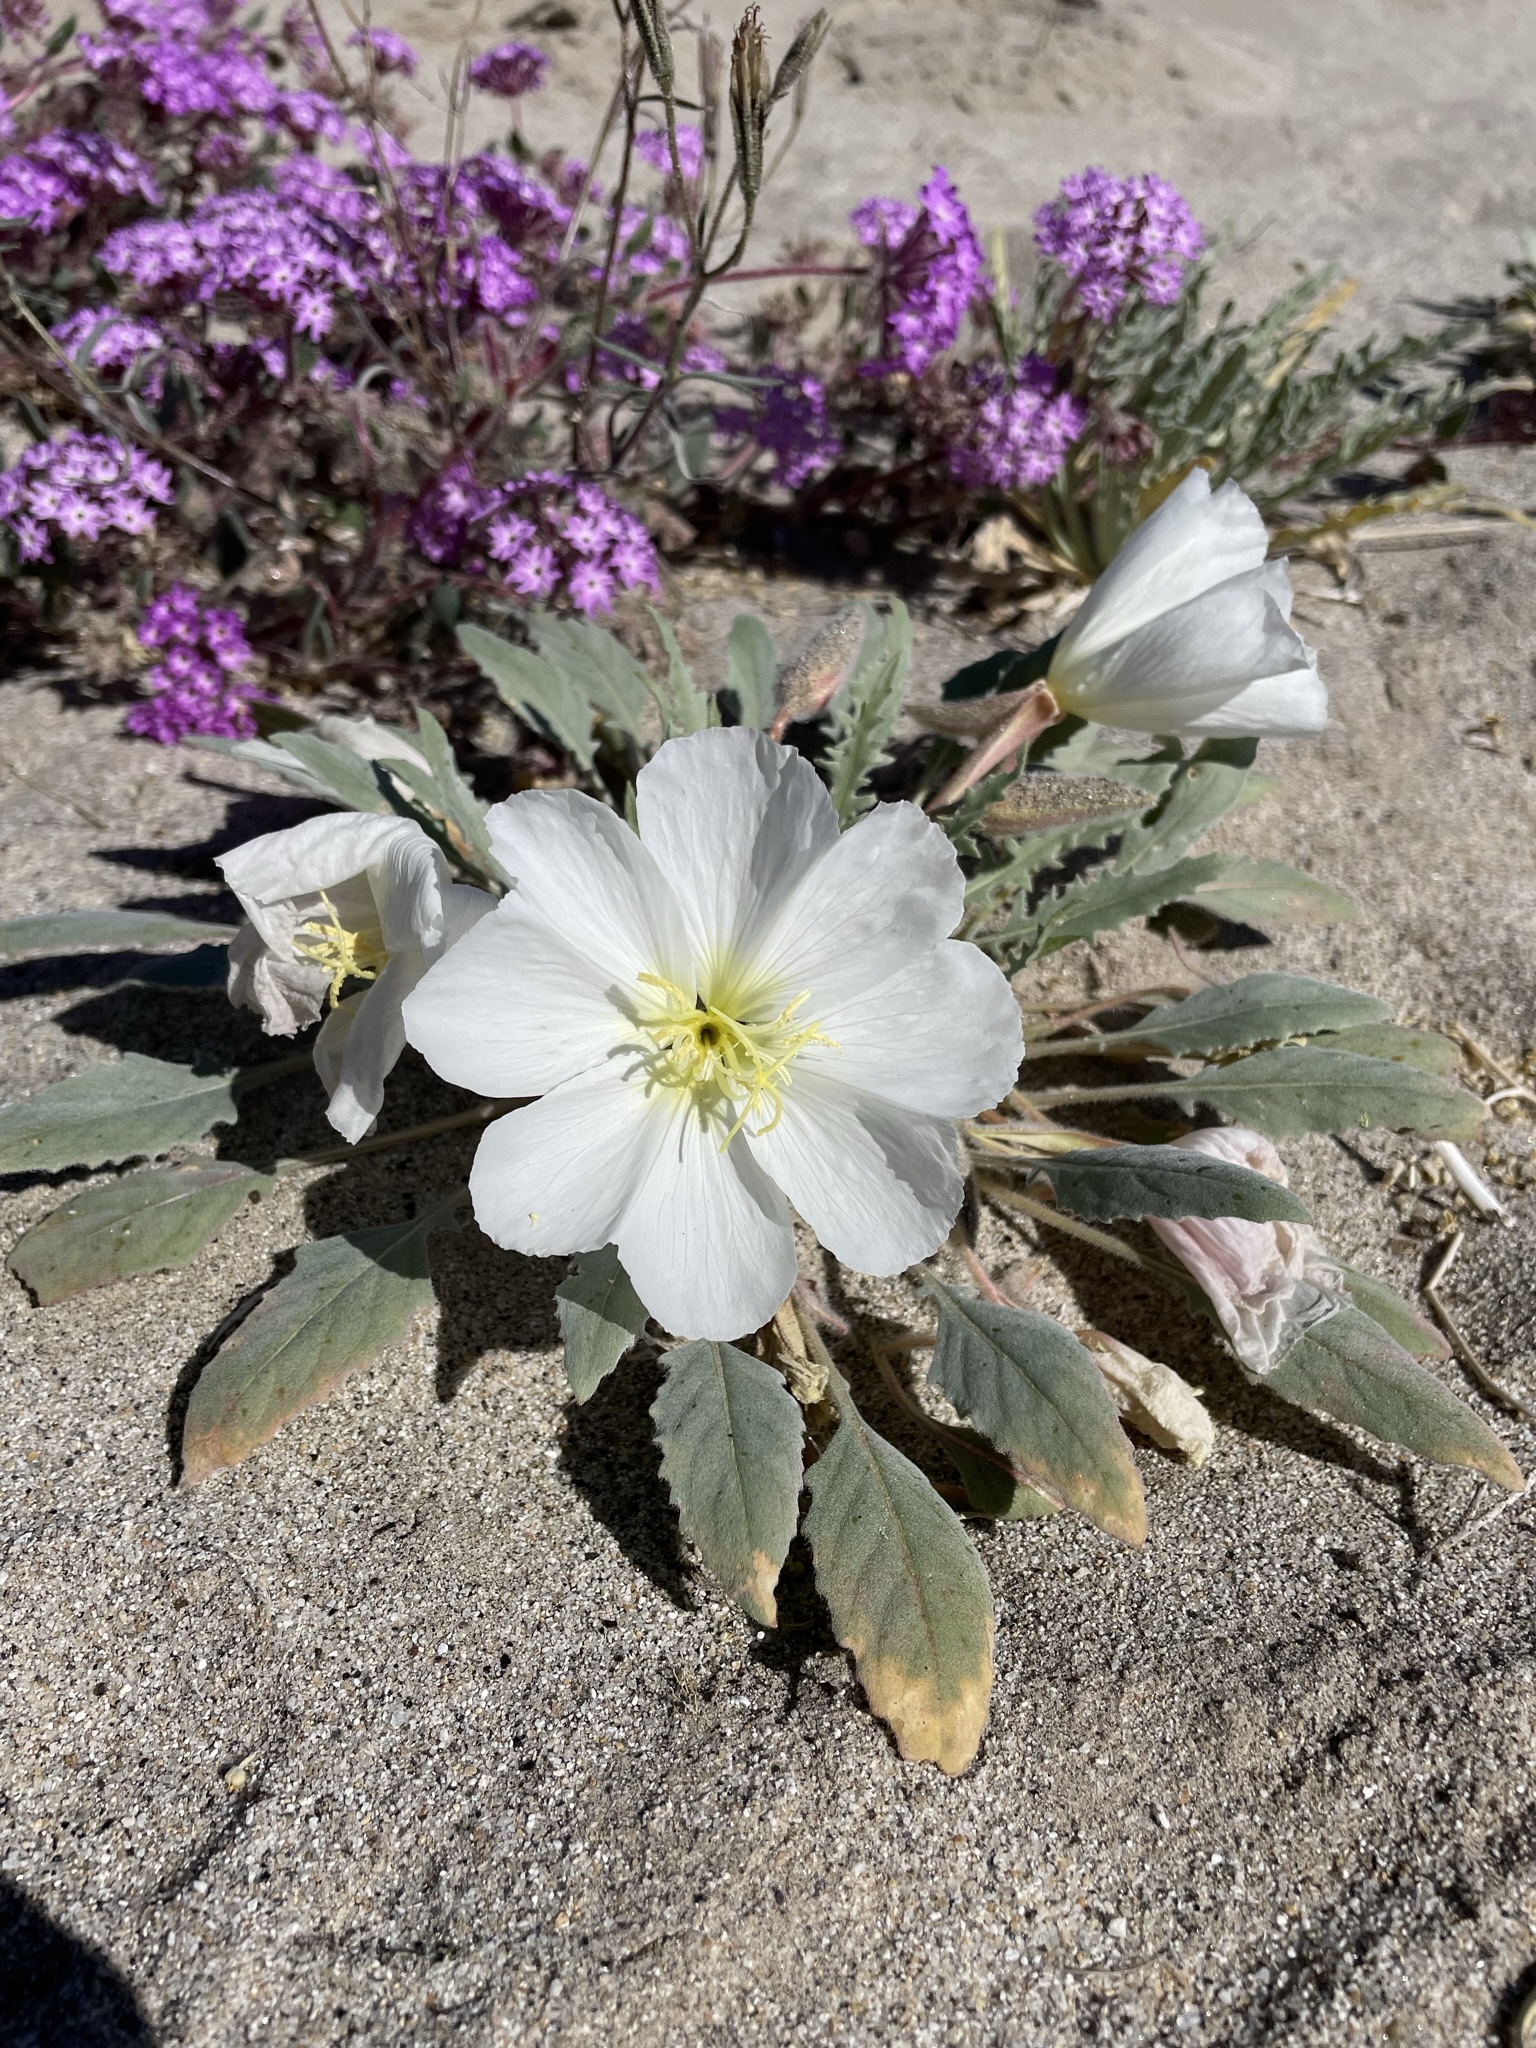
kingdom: Plantae
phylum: Tracheophyta
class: Magnoliopsida
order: Myrtales
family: Onagraceae
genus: Oenothera
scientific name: Oenothera deltoides
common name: Basket evening-primrose
